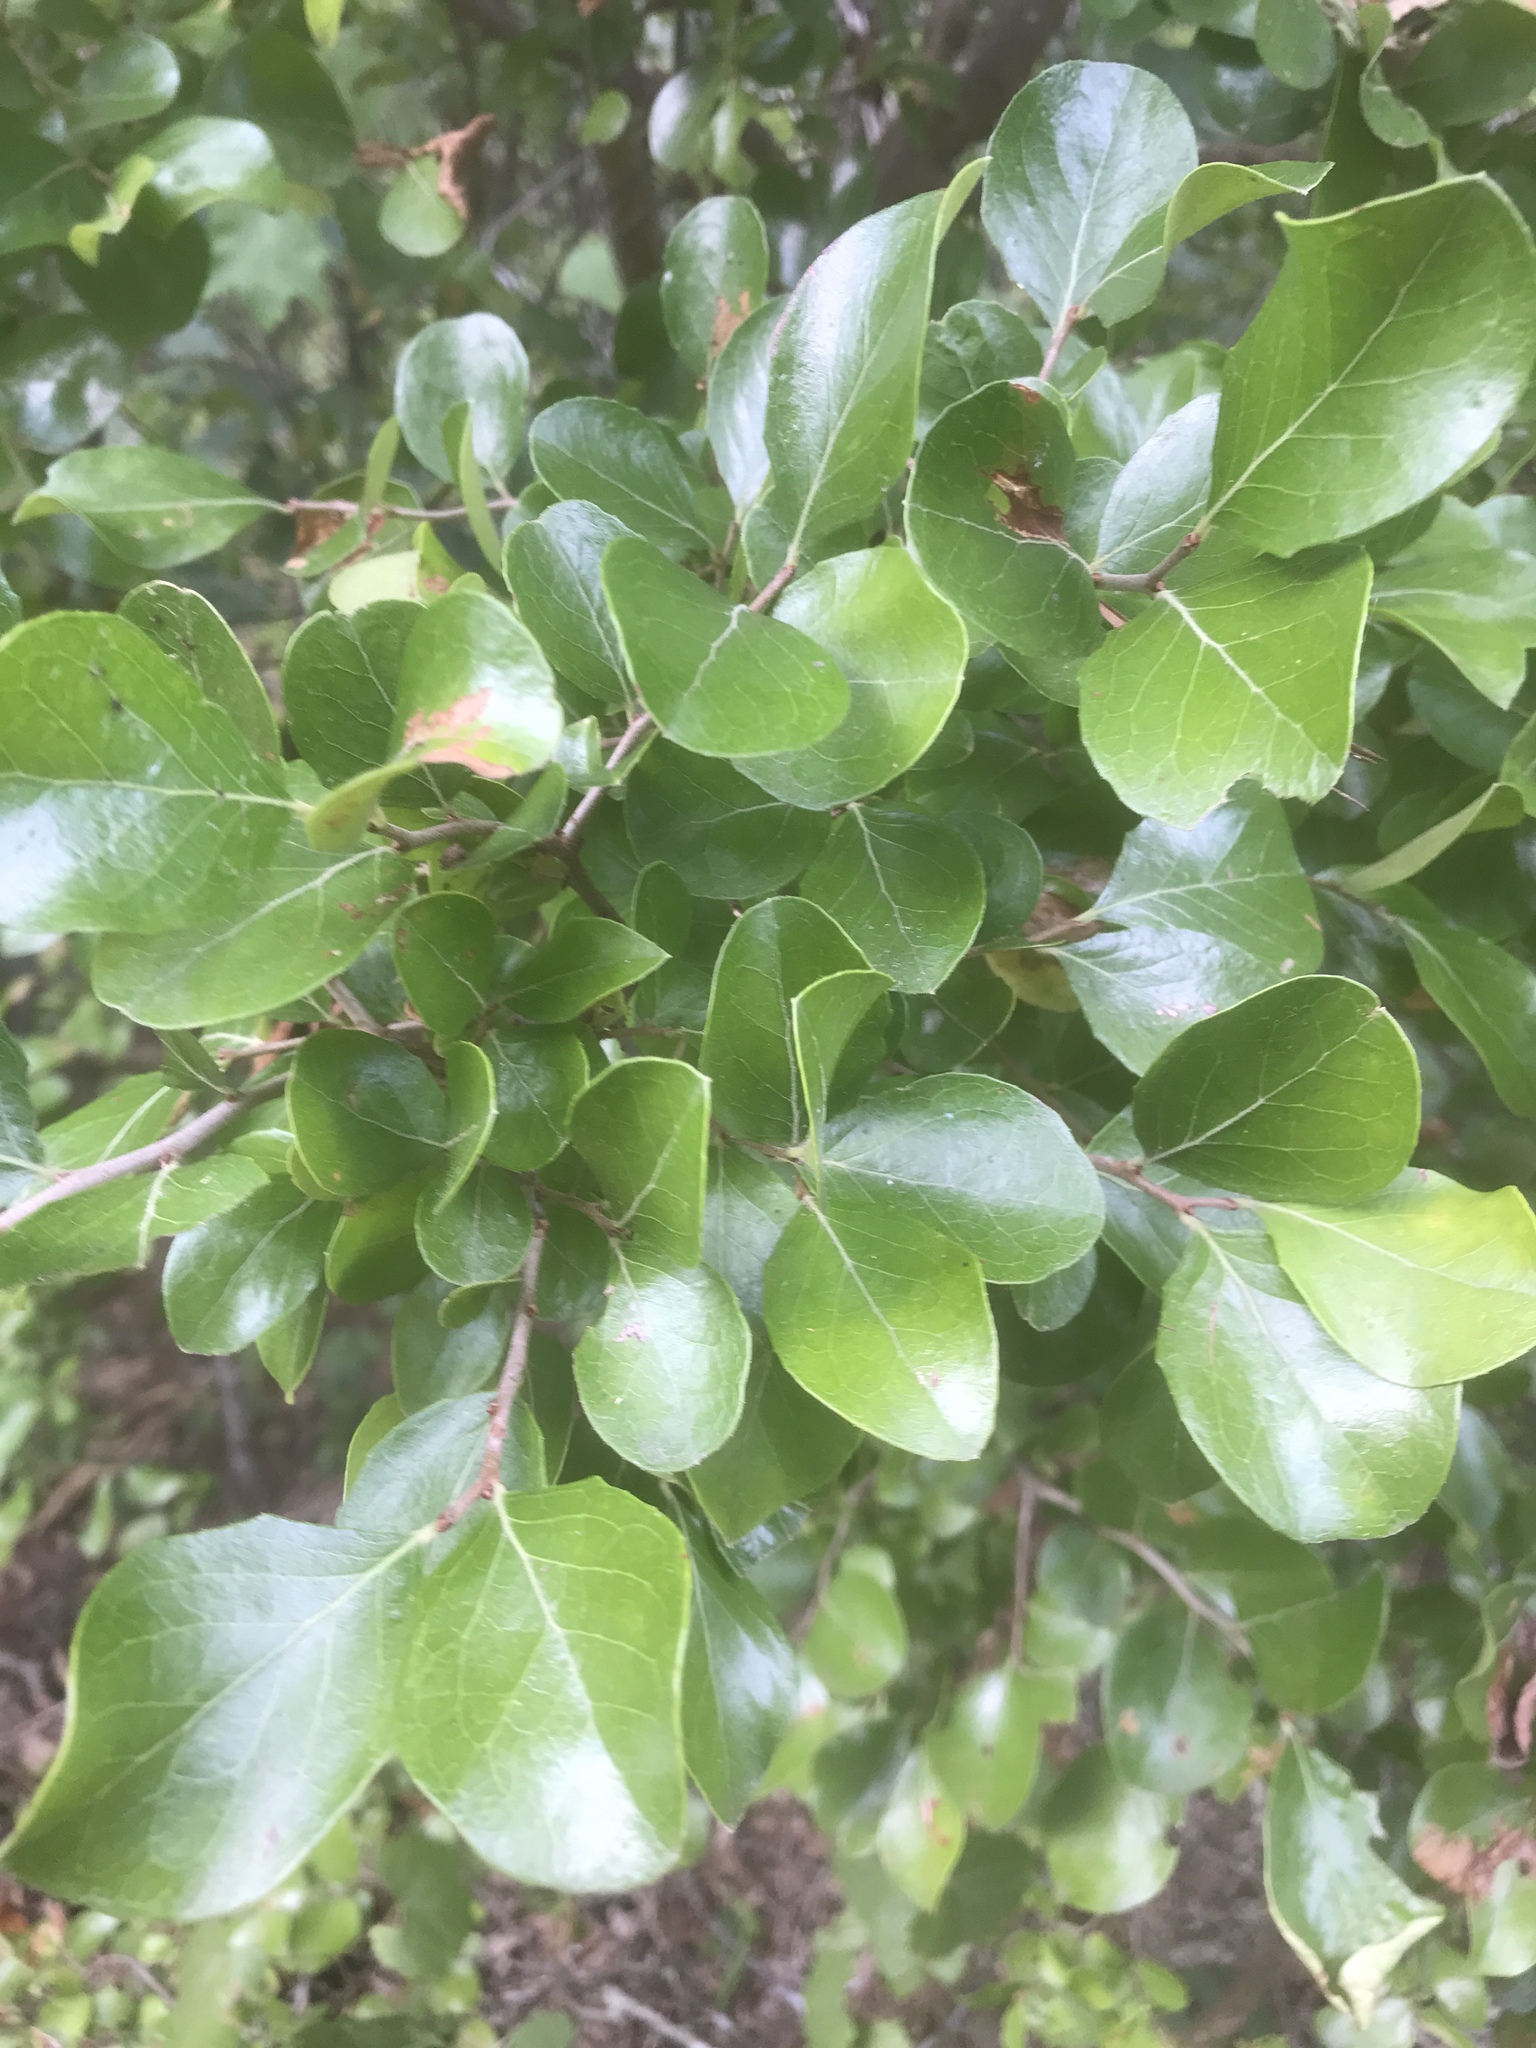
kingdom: Plantae
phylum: Tracheophyta
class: Magnoliopsida
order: Ericales
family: Ericaceae
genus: Vaccinium
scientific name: Vaccinium arboreum
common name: Farkleberry
